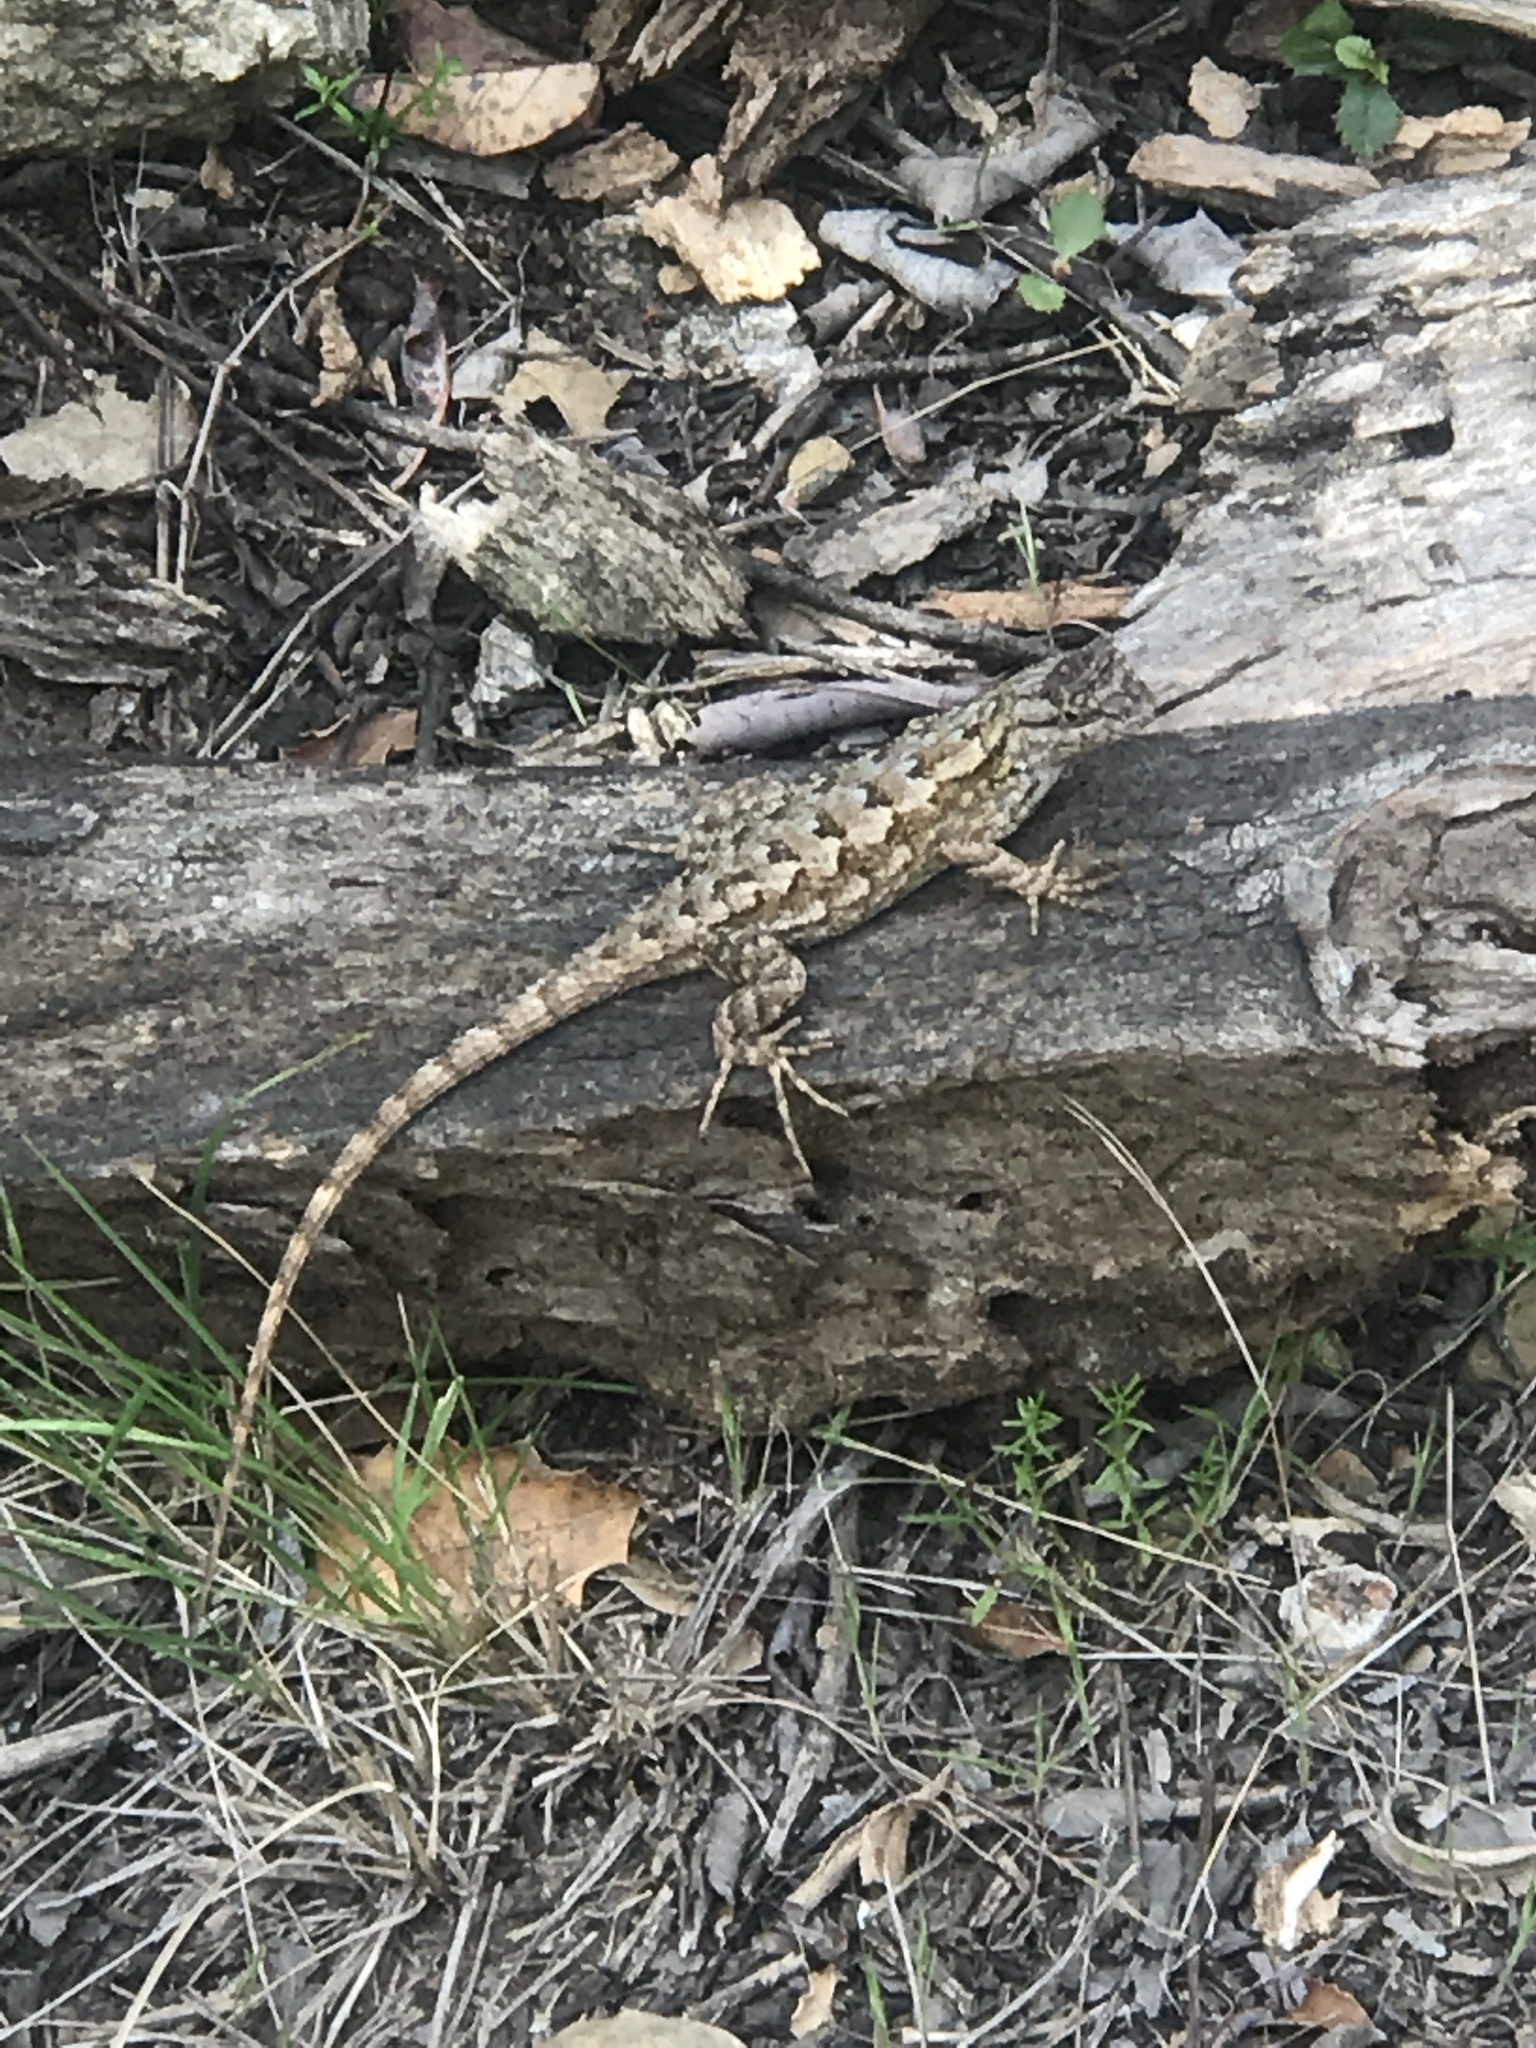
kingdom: Animalia
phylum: Chordata
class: Squamata
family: Phrynosomatidae
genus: Sceloporus
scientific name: Sceloporus occidentalis
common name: Western fence lizard
